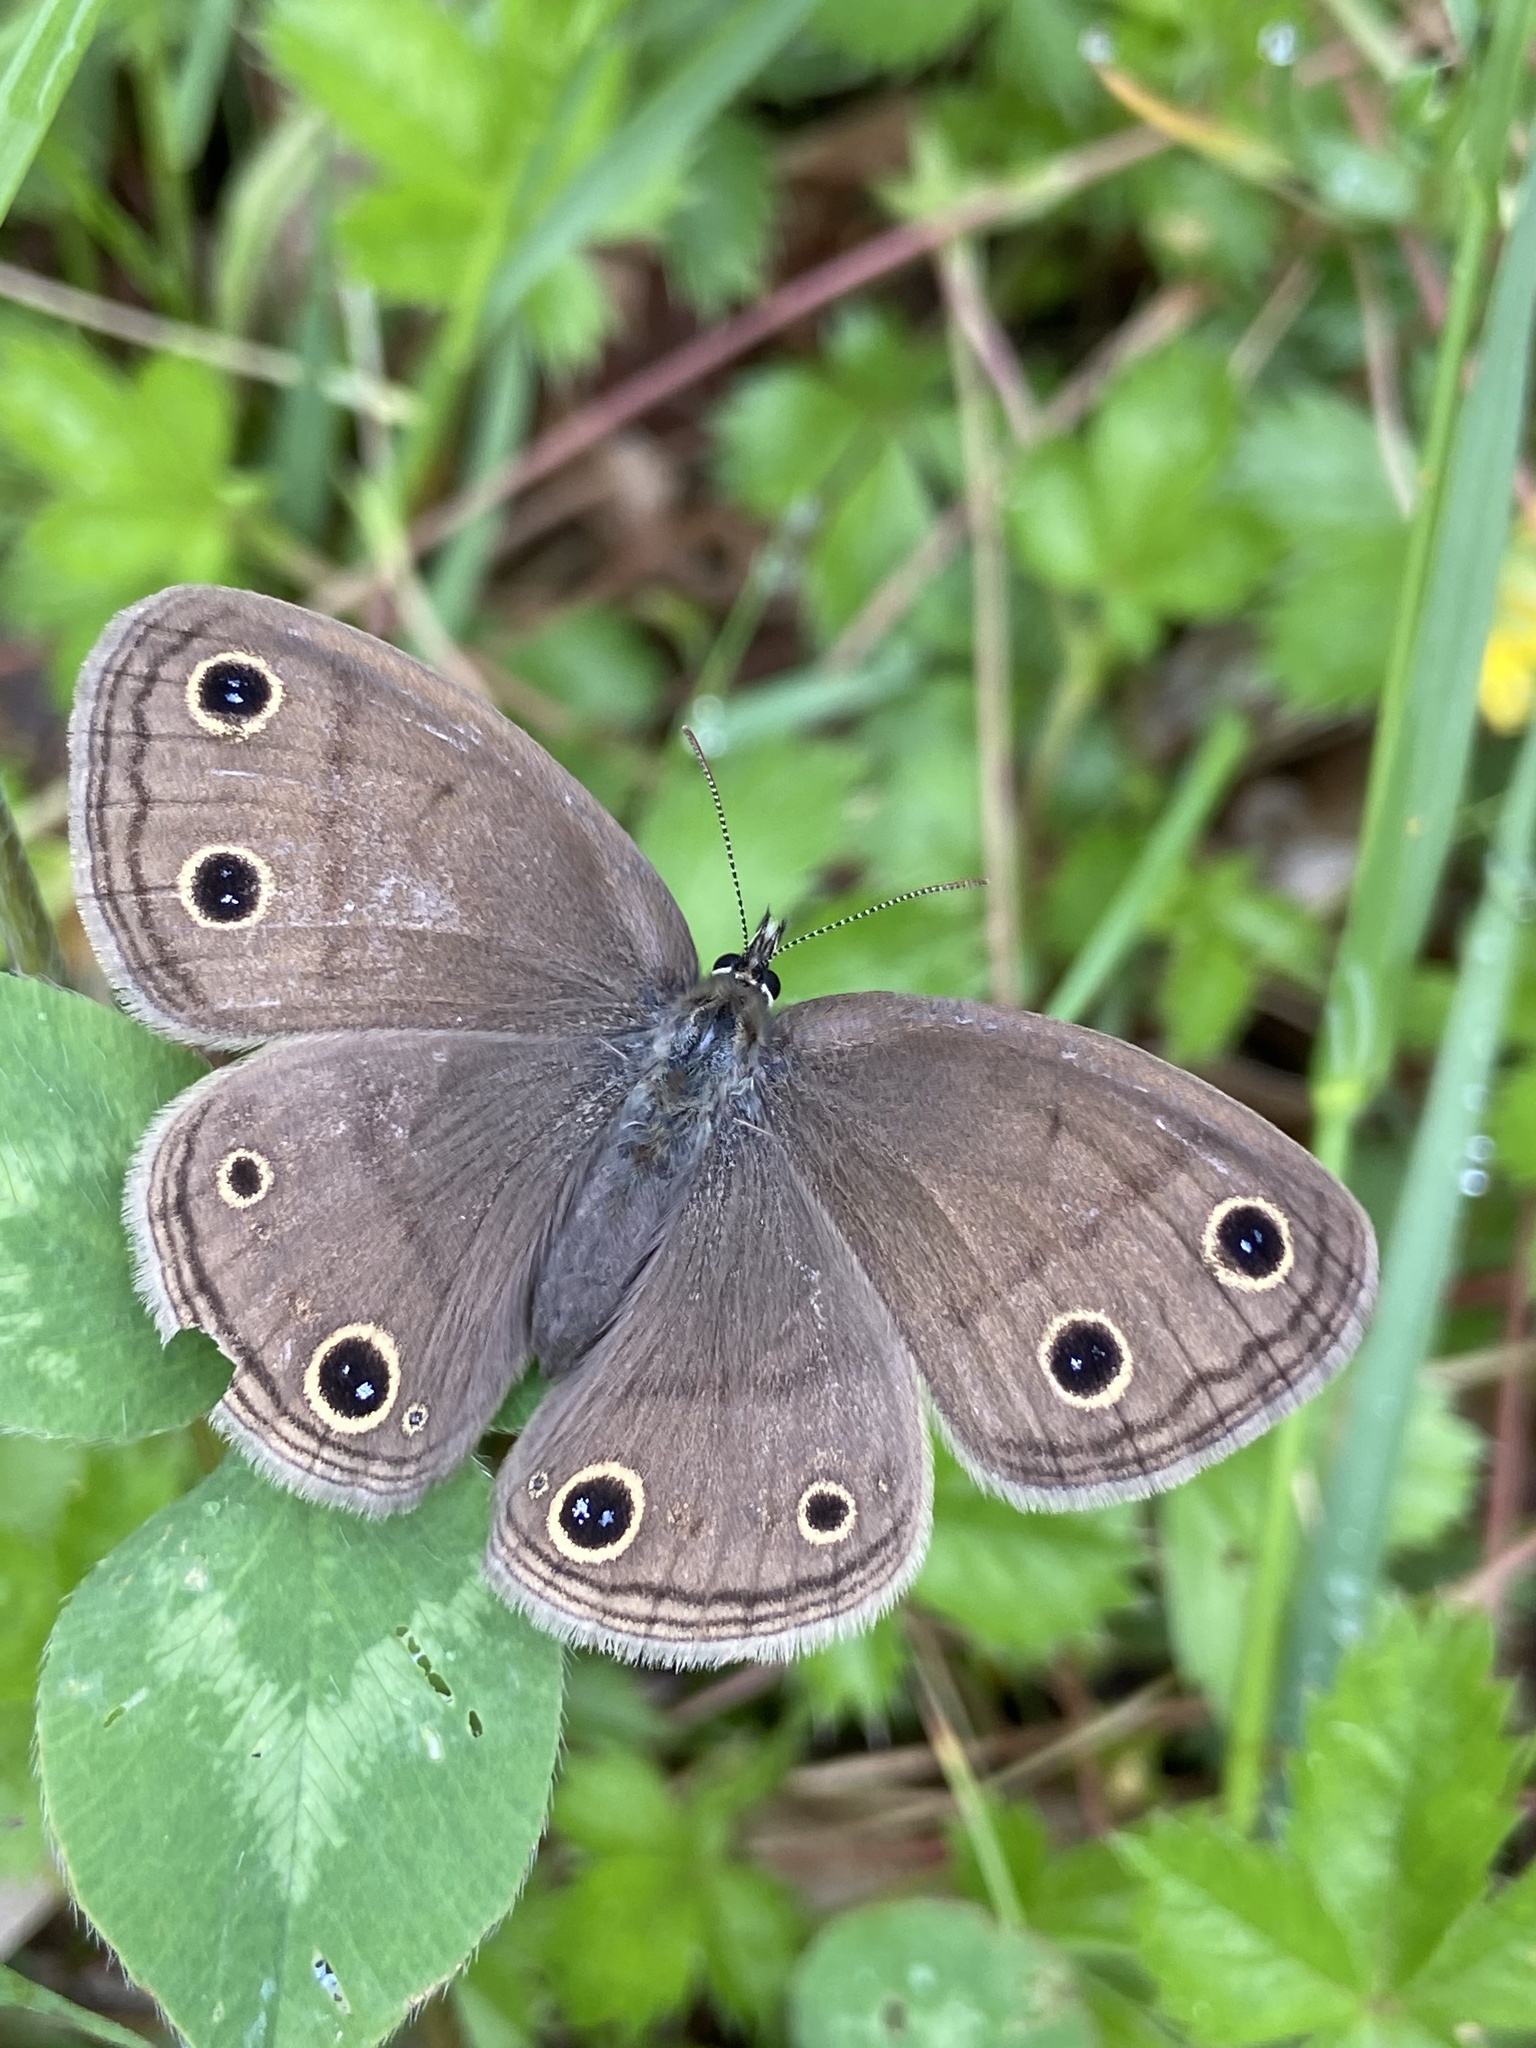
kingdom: Animalia
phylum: Arthropoda
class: Insecta
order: Lepidoptera
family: Nymphalidae
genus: Euptychia
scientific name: Euptychia cymela
